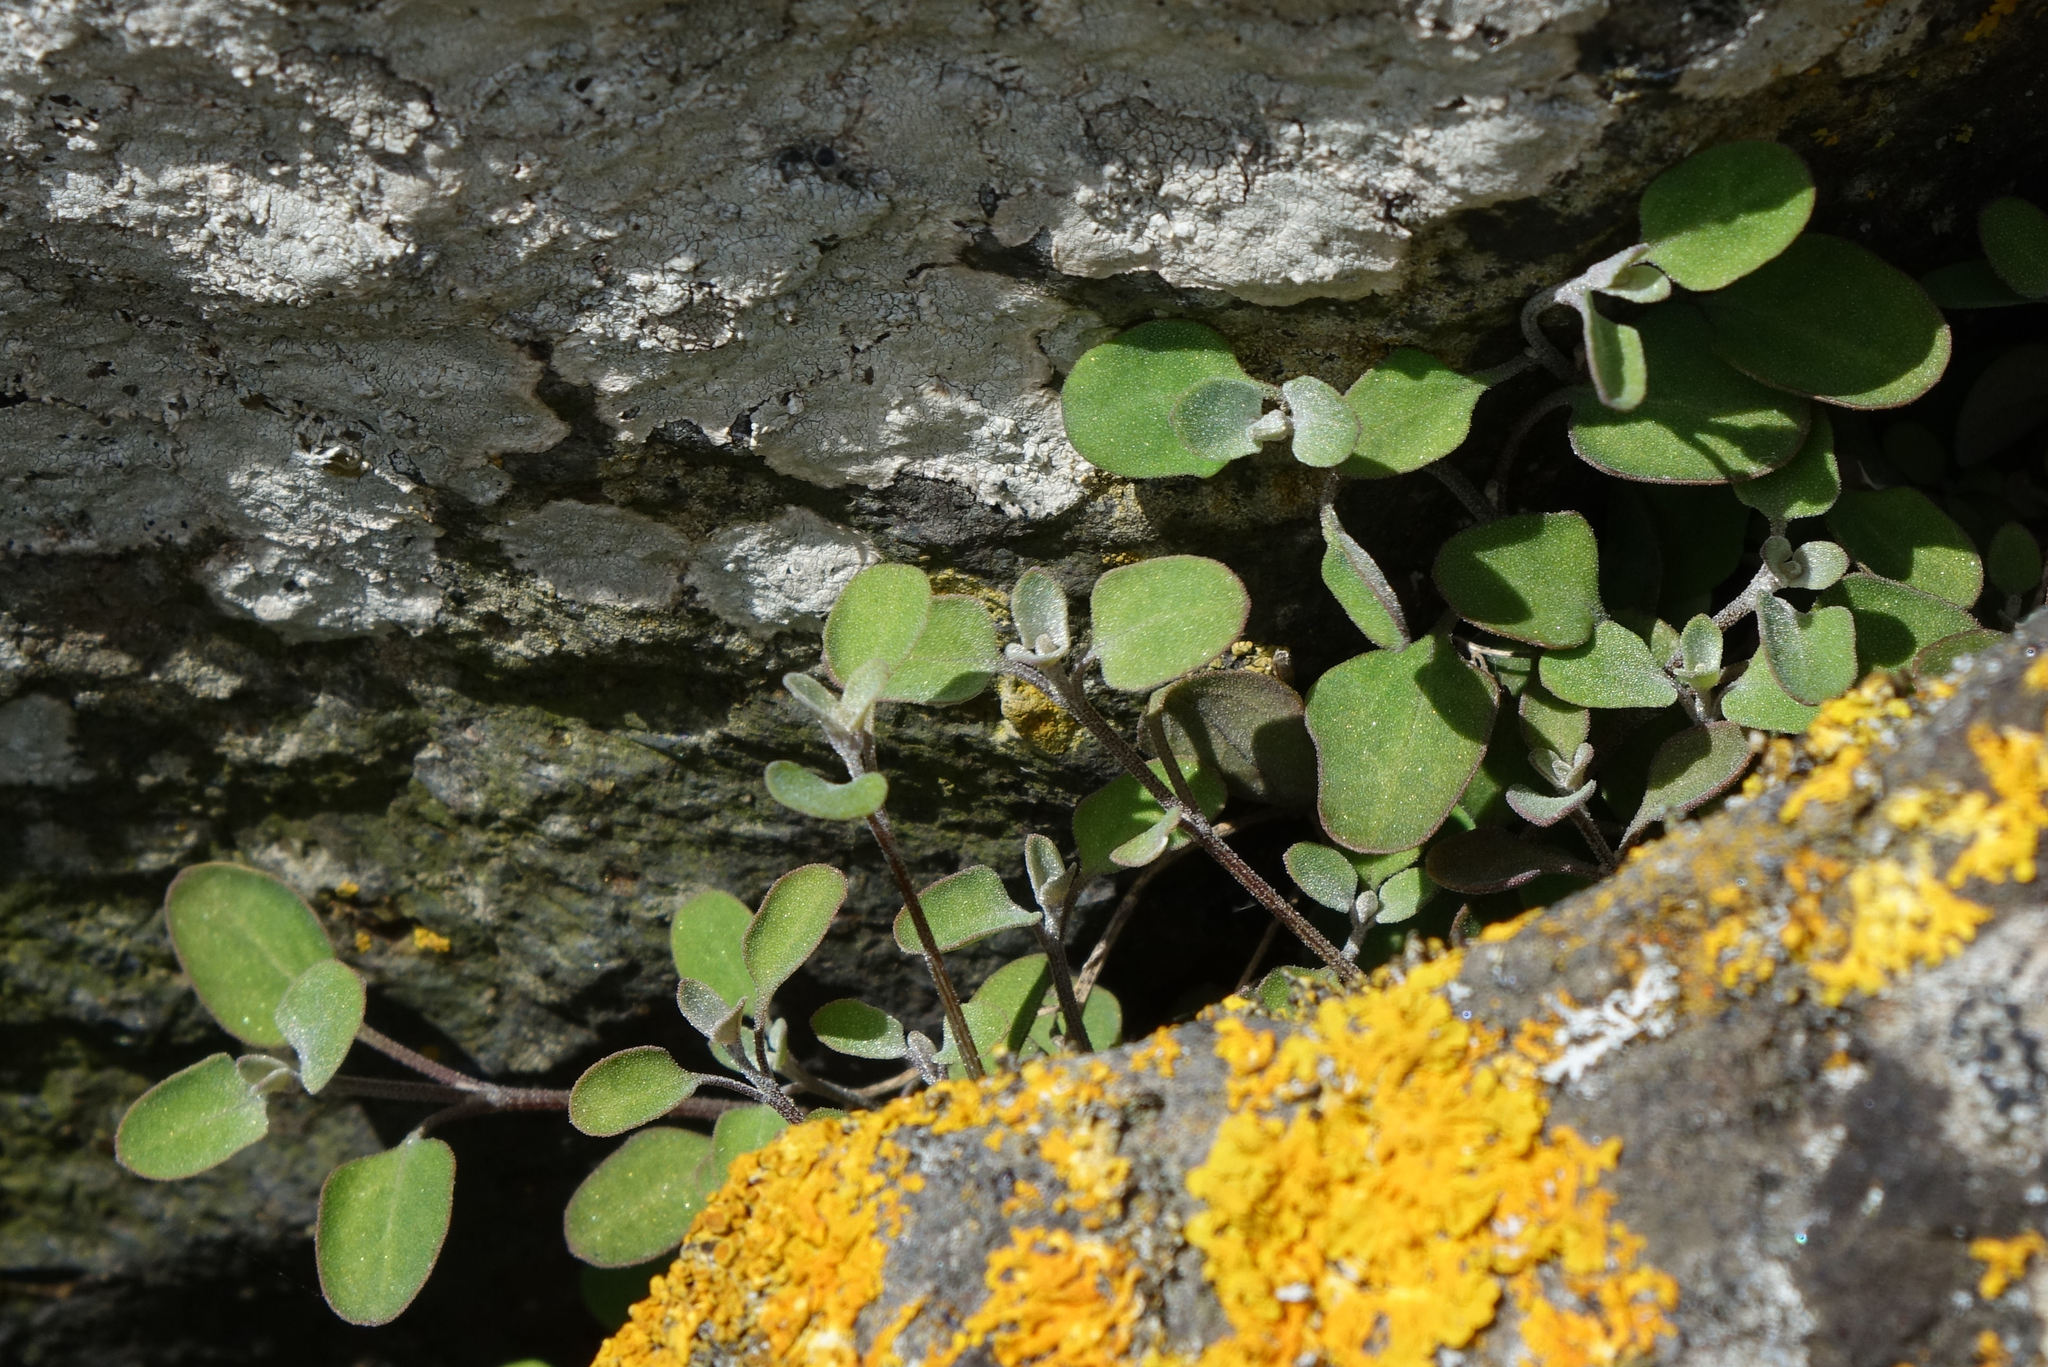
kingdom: Plantae
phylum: Tracheophyta
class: Magnoliopsida
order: Caryophyllales
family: Amaranthaceae
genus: Chenopodium
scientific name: Chenopodium allanii
